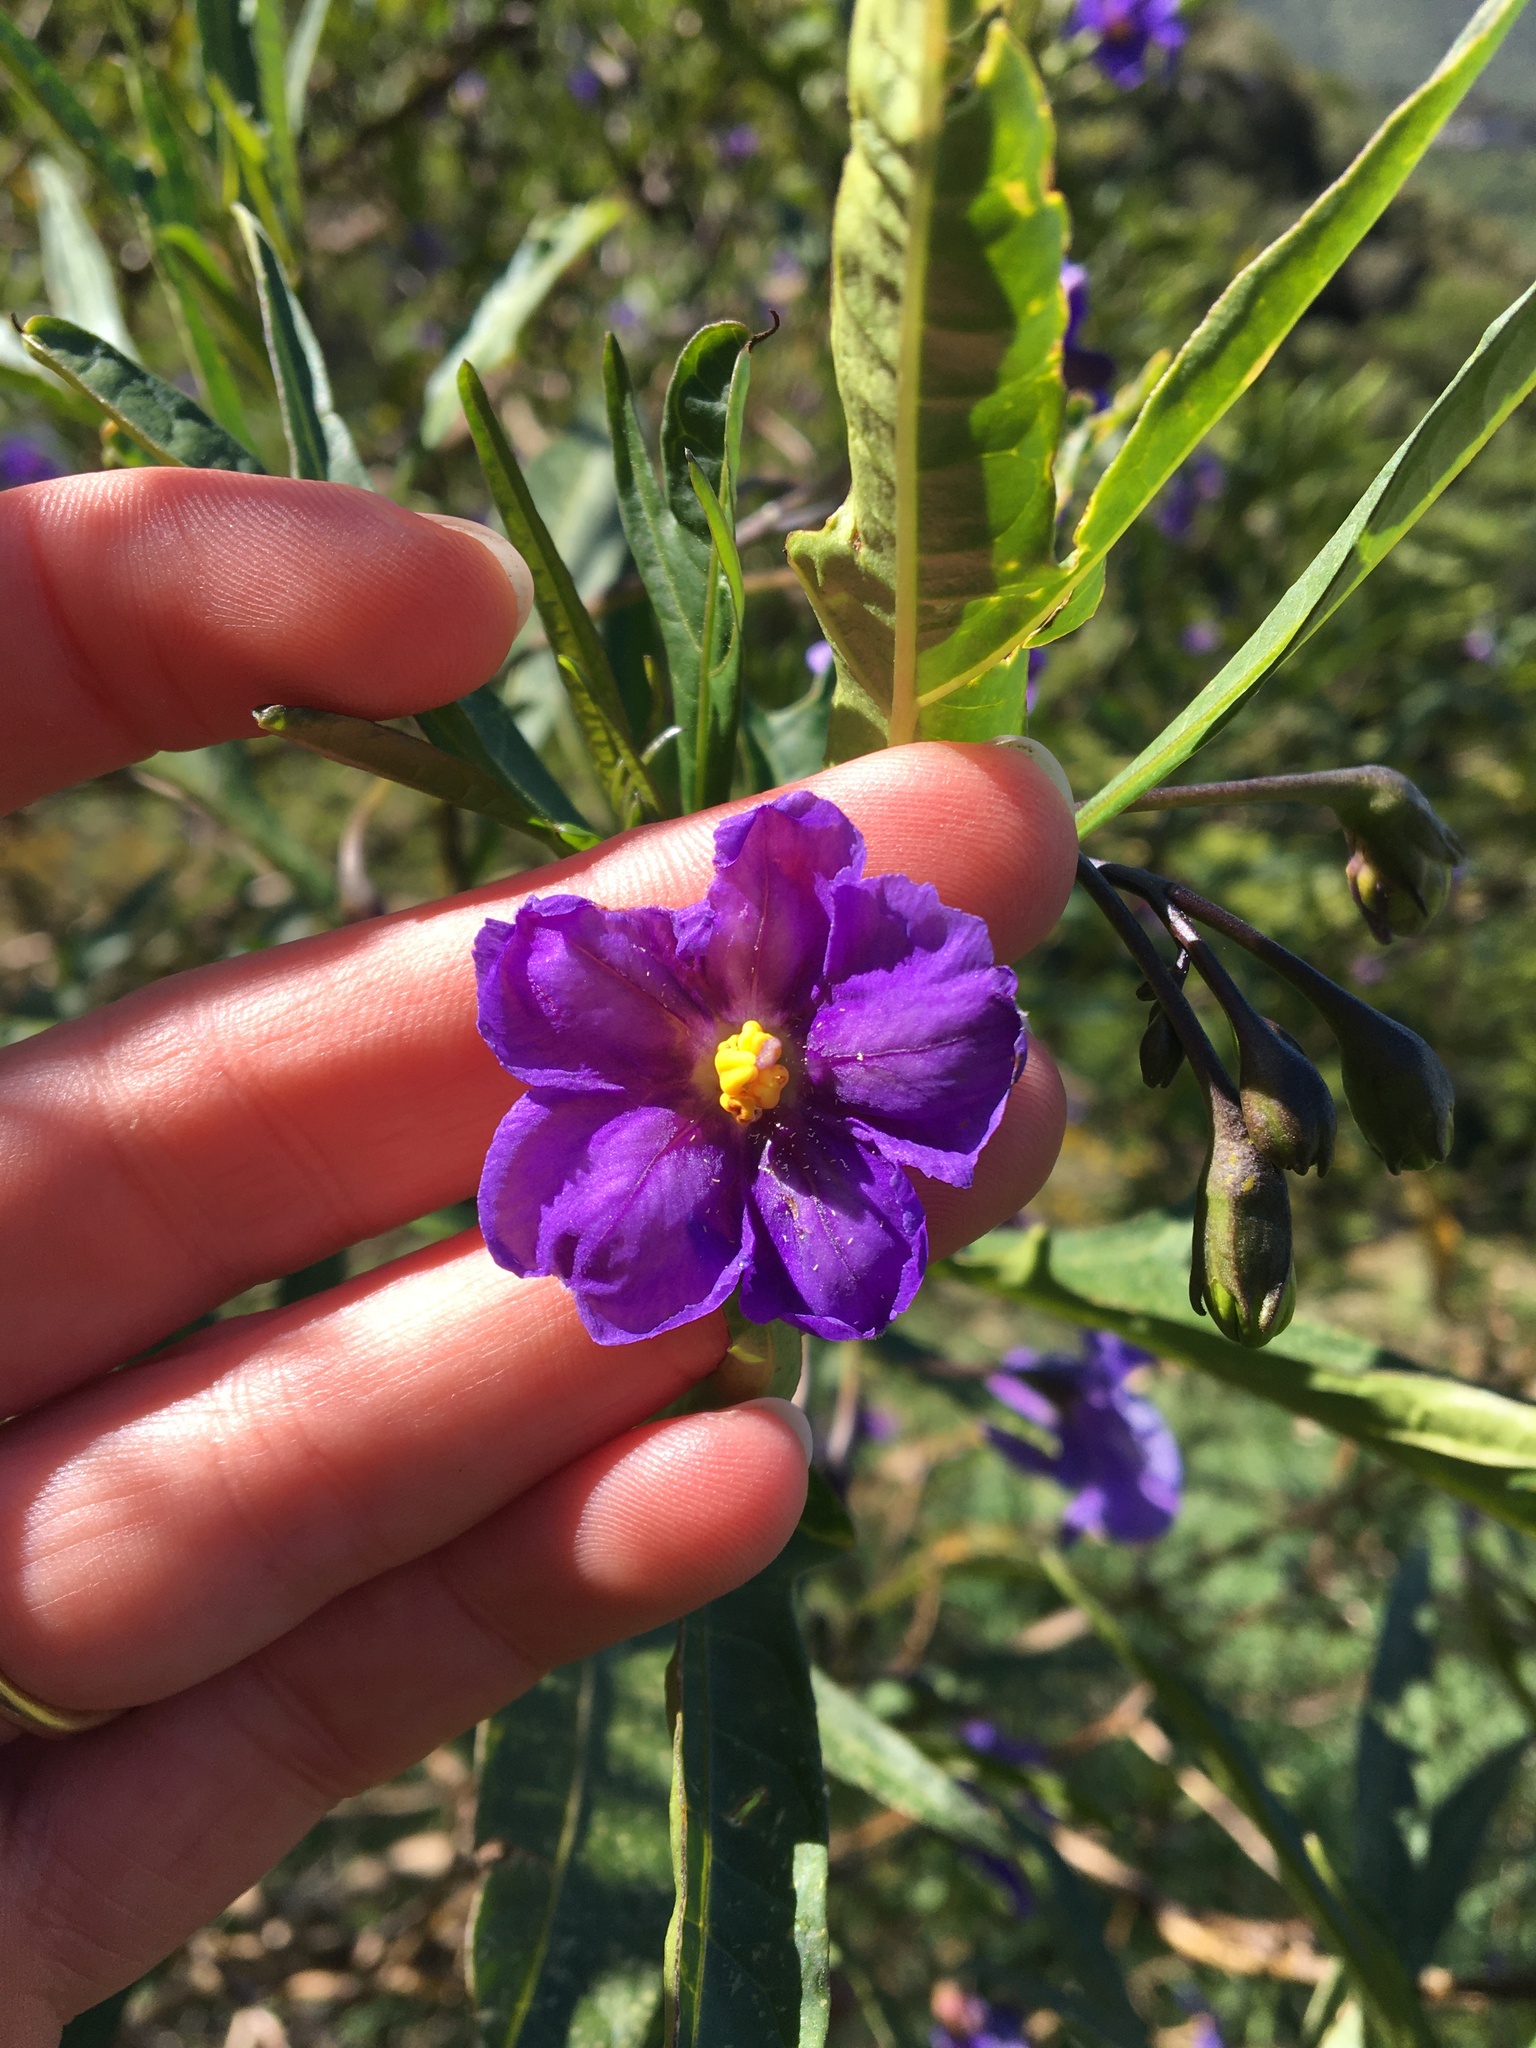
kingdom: Plantae
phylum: Tracheophyta
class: Magnoliopsida
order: Solanales
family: Solanaceae
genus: Solanum
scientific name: Solanum laciniatum
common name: Kangaroo-apple
